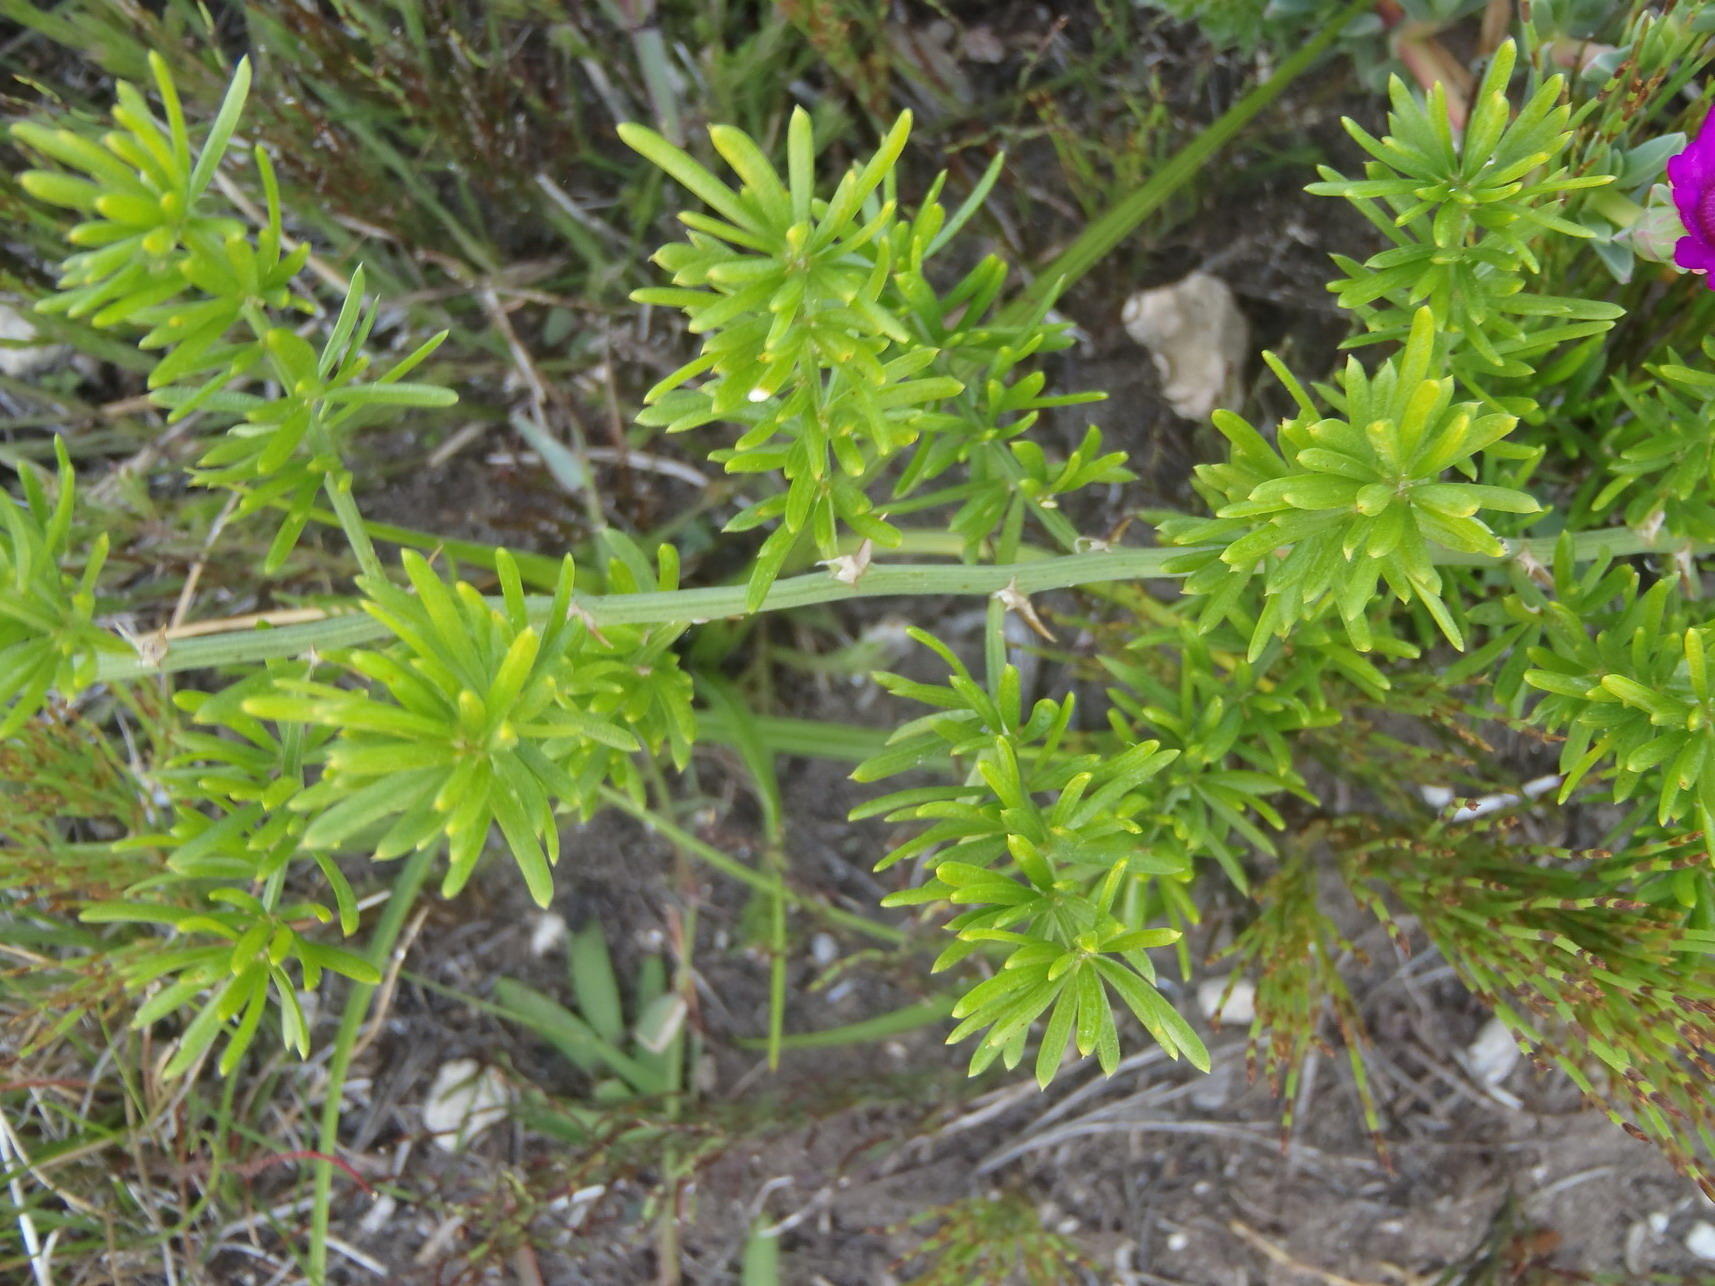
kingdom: Plantae
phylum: Tracheophyta
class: Liliopsida
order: Asparagales
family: Asparagaceae
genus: Asparagus
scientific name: Asparagus aethiopicus
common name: Sprenger's asparagus fern
